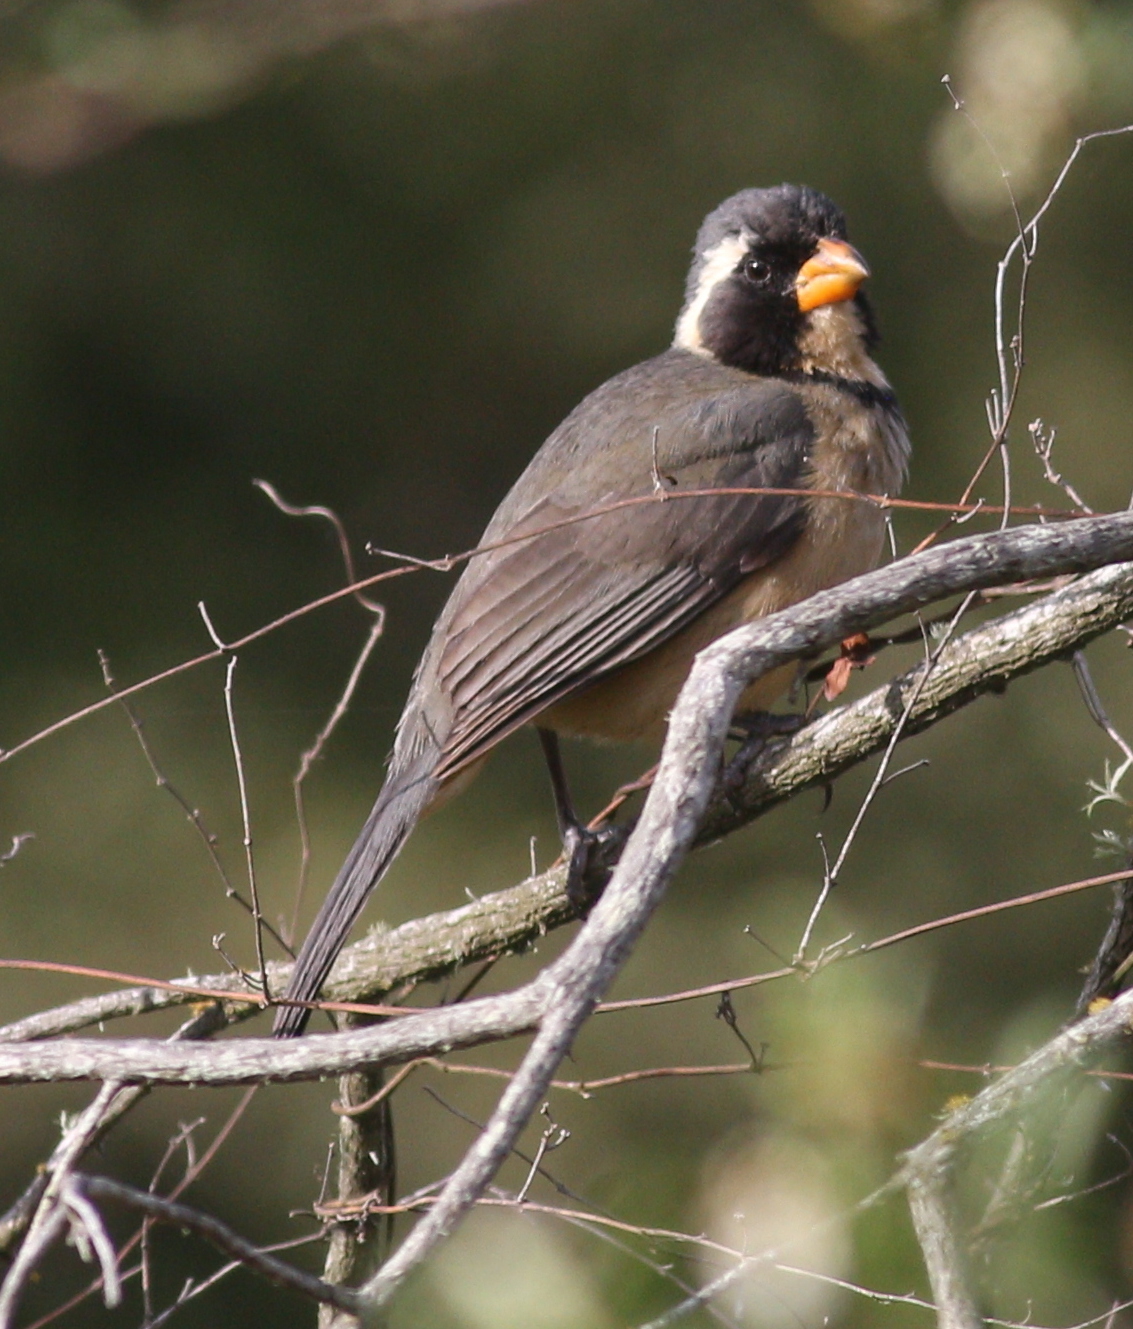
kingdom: Animalia
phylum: Chordata
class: Aves
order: Passeriformes
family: Thraupidae
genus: Saltator
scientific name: Saltator aurantiirostris
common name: Golden-billed saltator
